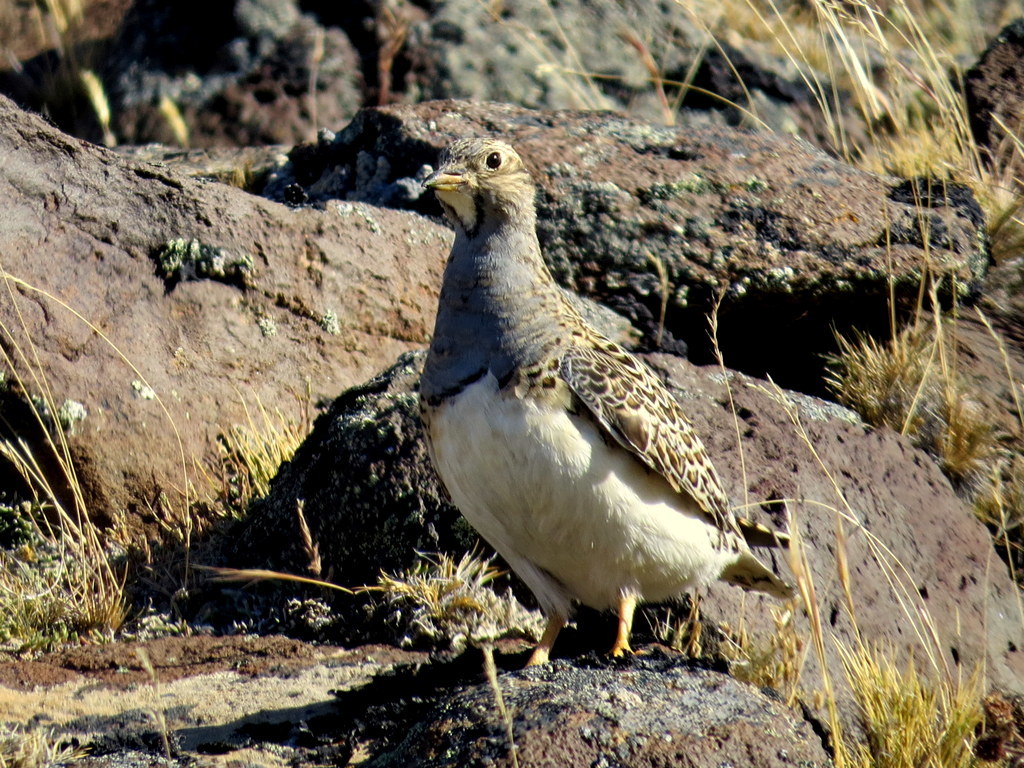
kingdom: Animalia
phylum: Chordata
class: Aves
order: Charadriiformes
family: Thinocoridae
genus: Thinocorus
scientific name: Thinocorus orbignyianus
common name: Grey-breasted seedsnipe
